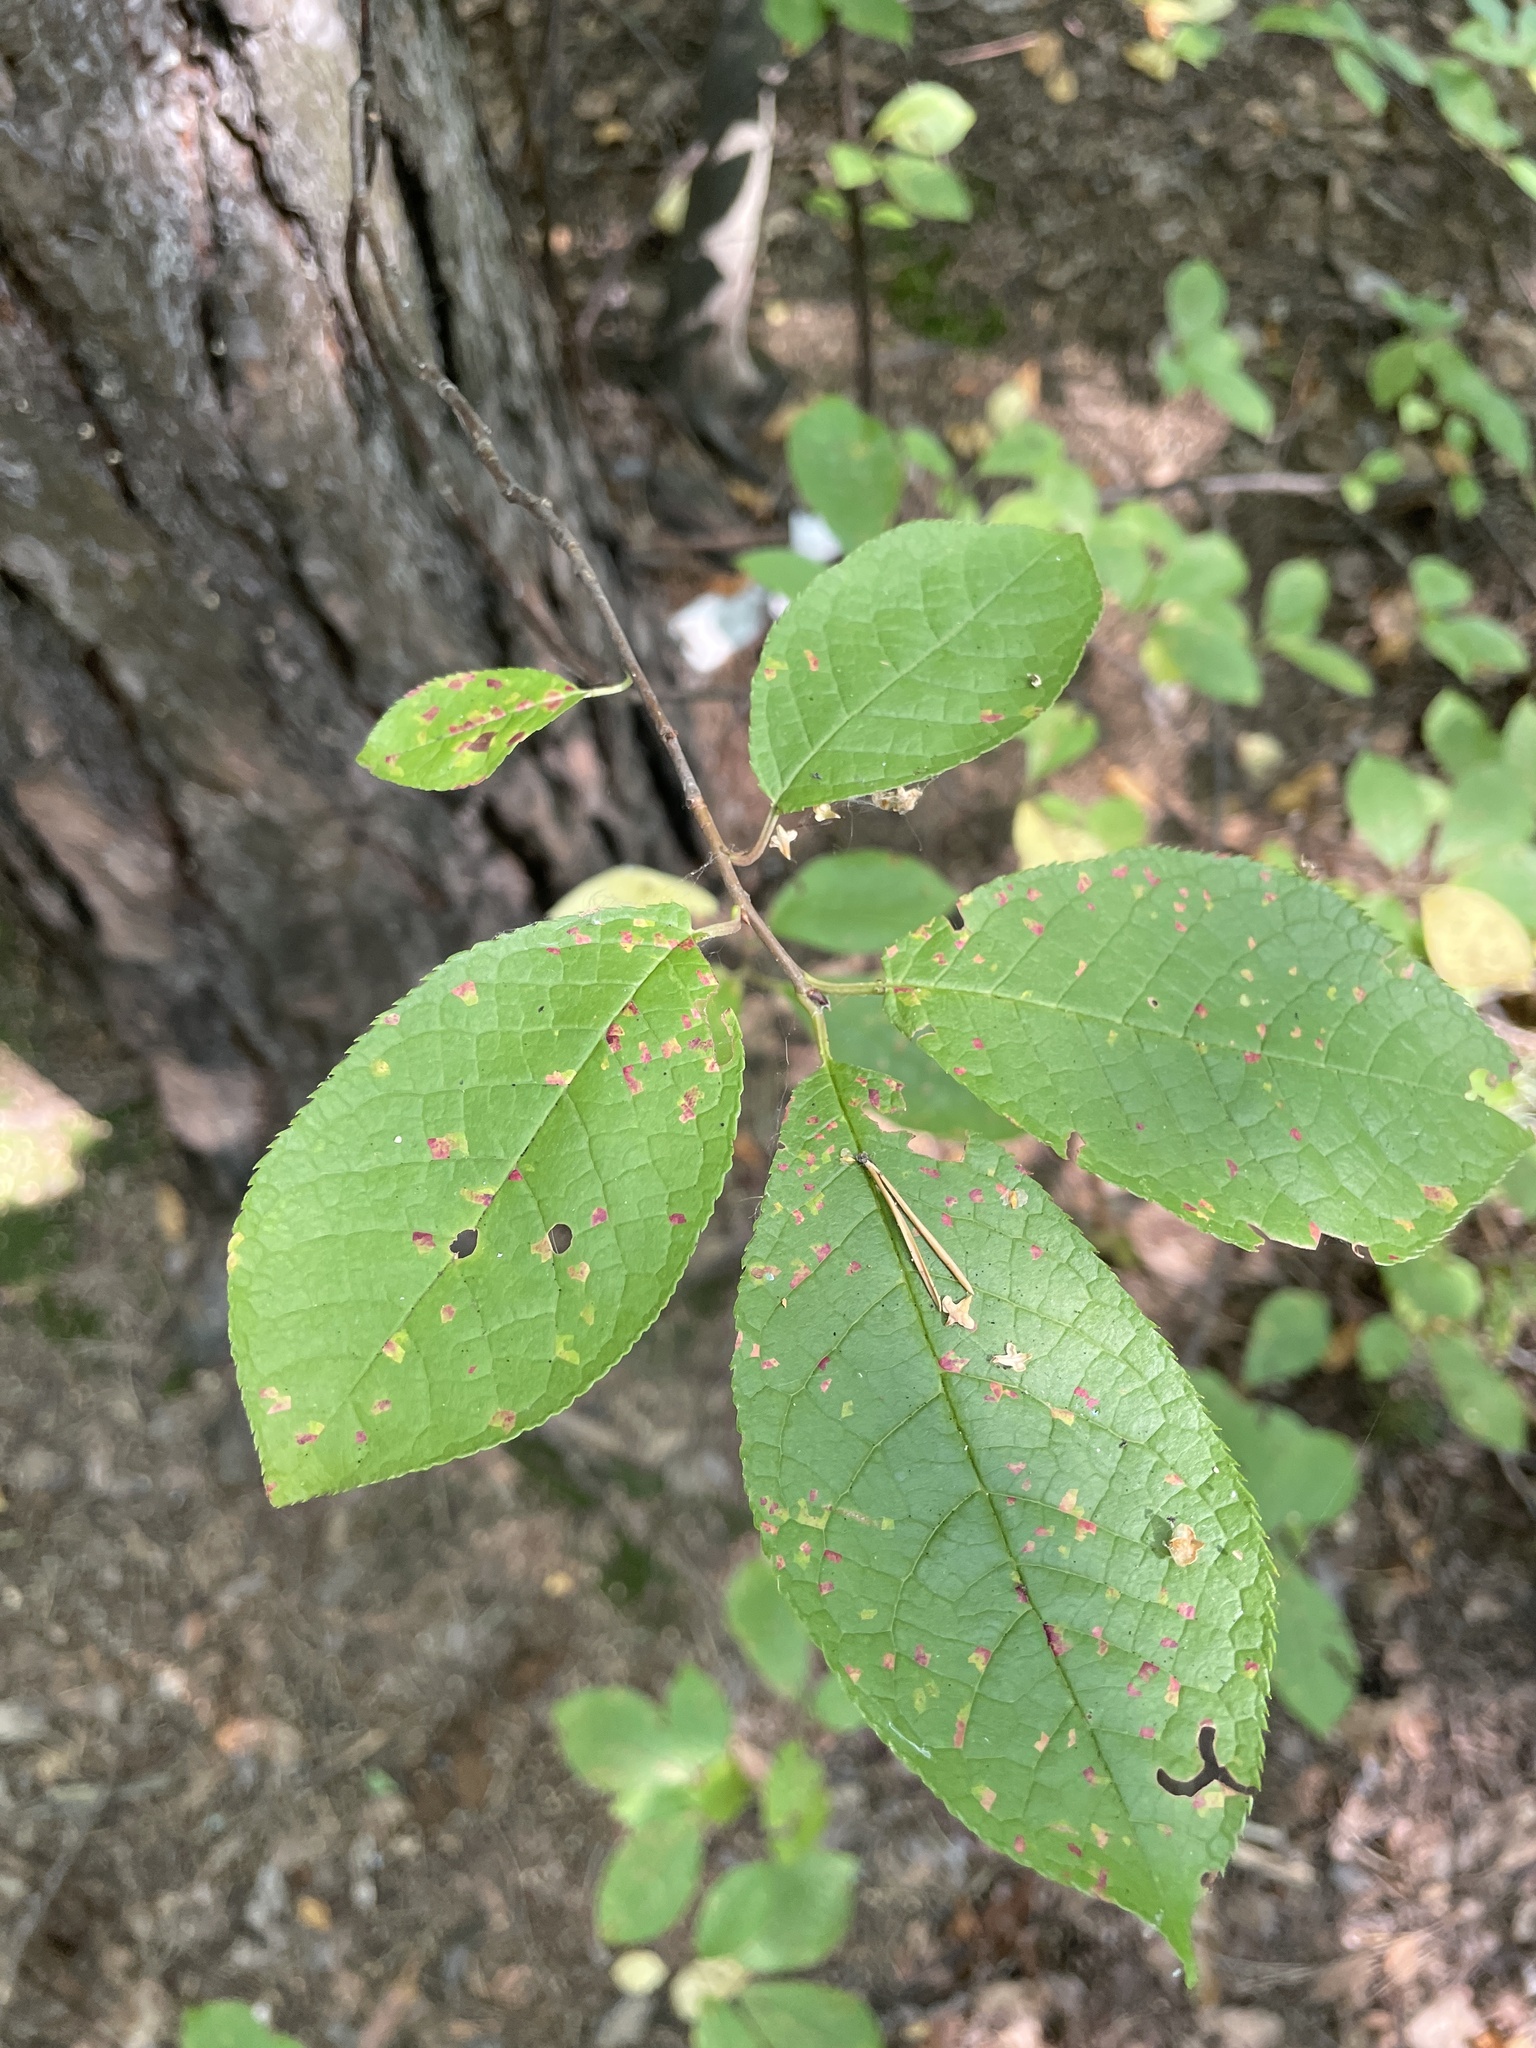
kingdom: Plantae
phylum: Tracheophyta
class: Magnoliopsida
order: Rosales
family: Rosaceae
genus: Prunus
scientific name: Prunus padus
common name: Bird cherry
